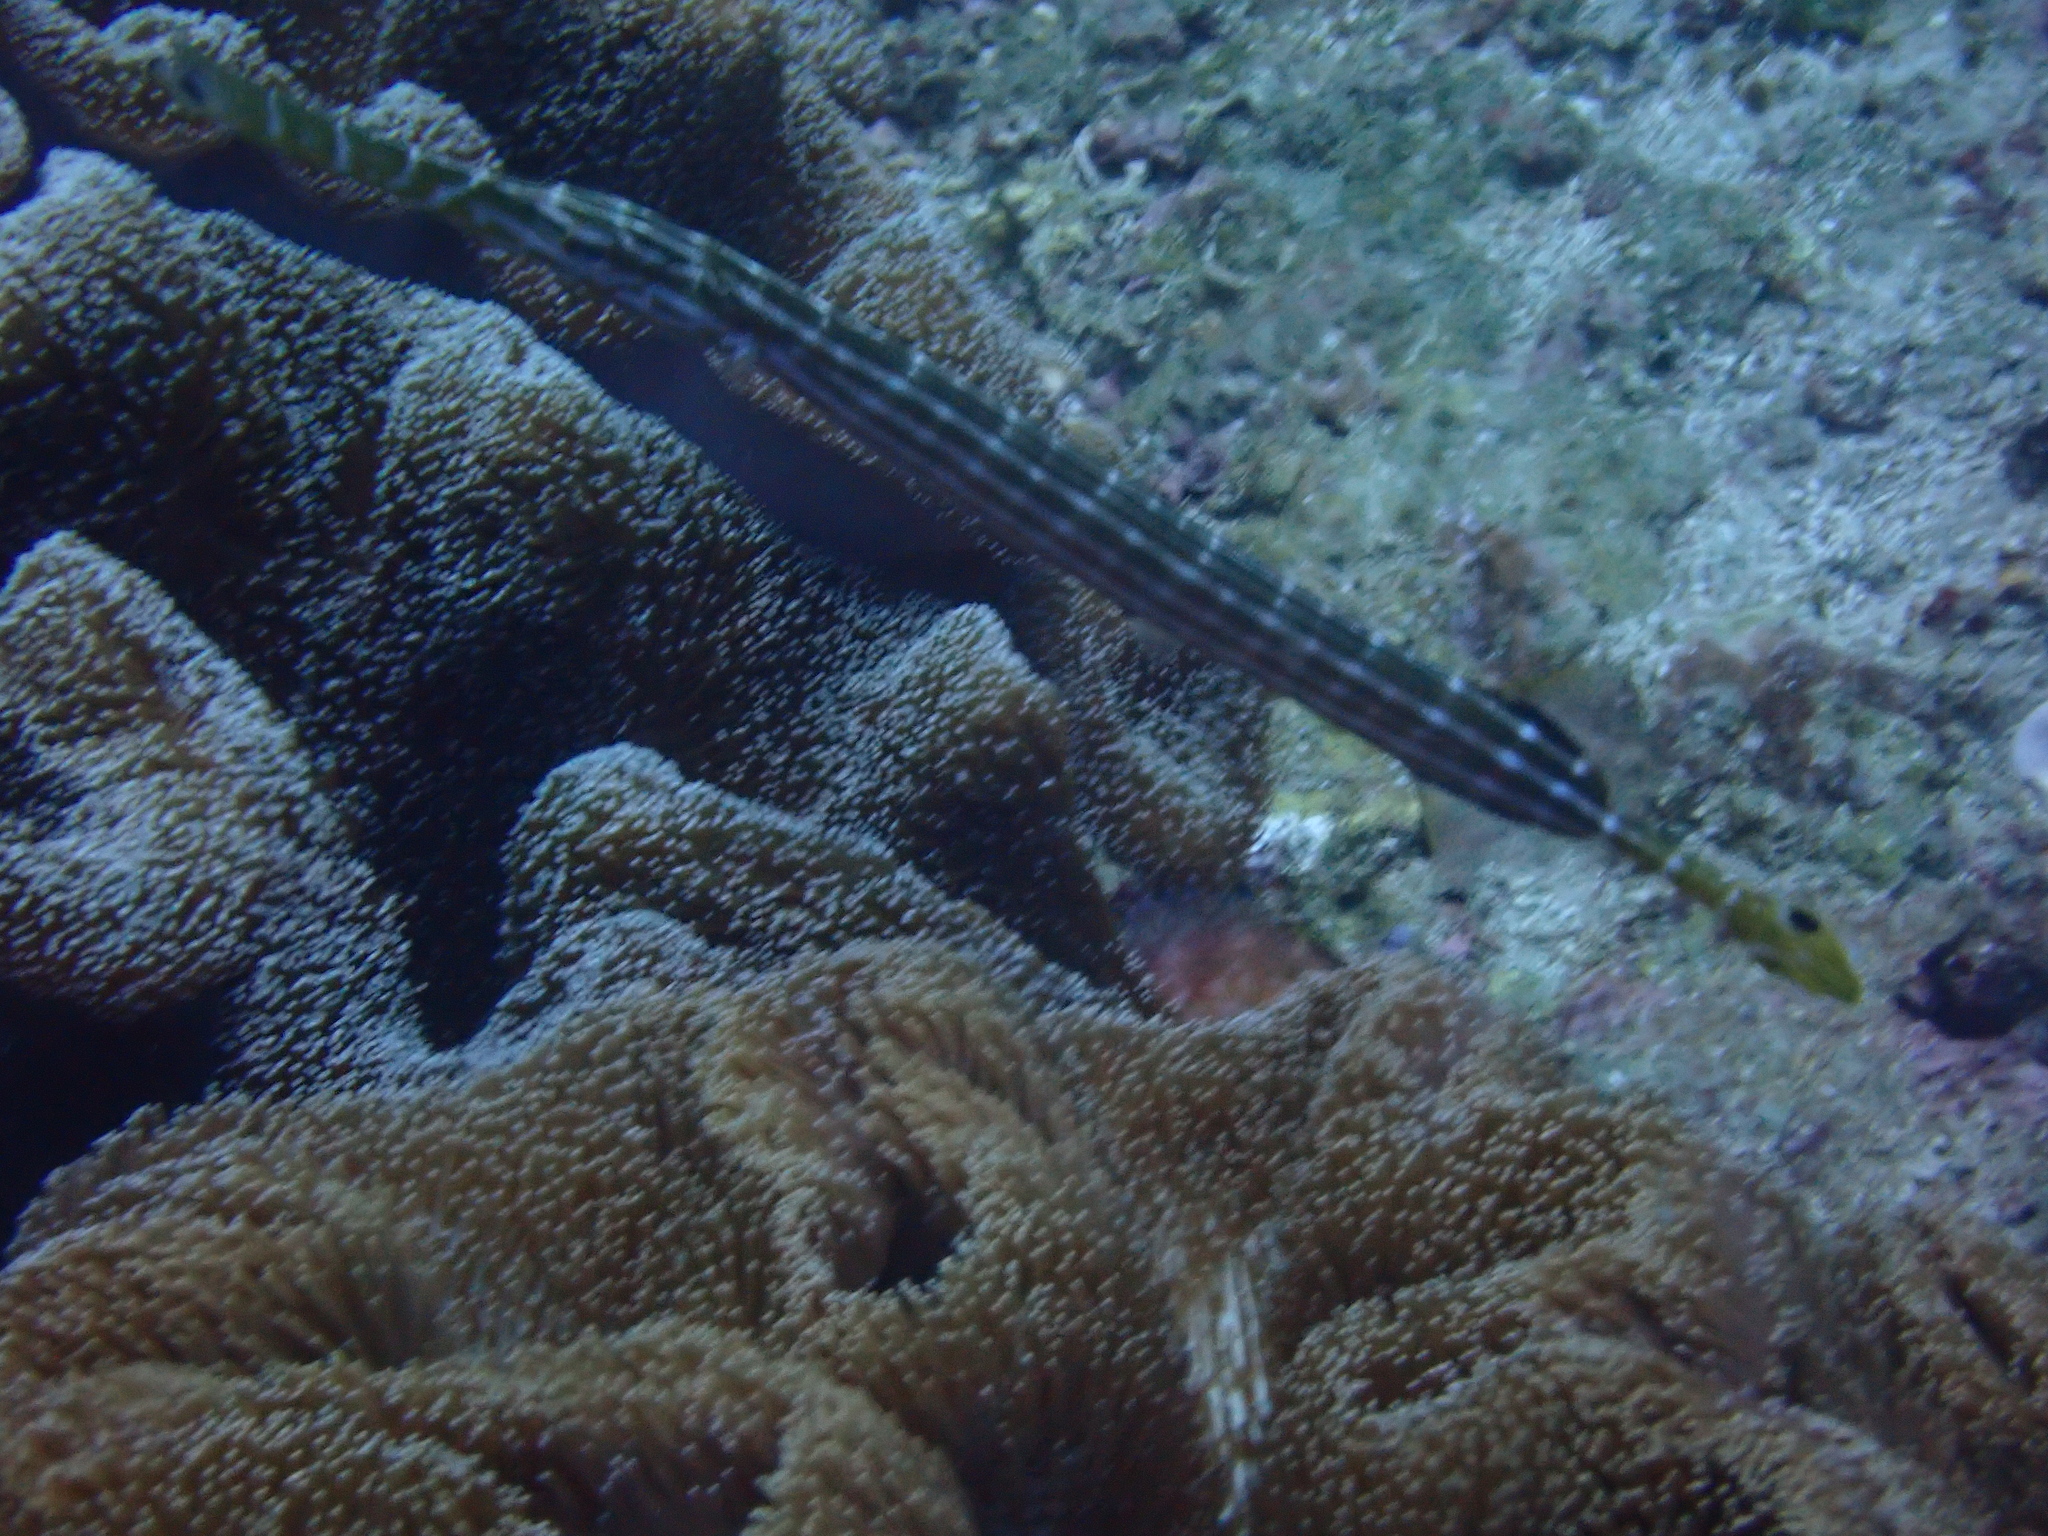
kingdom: Animalia
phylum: Chordata
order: Syngnathiformes
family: Aulostomidae
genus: Aulostomus
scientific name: Aulostomus chinensis
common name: Chinese trumpetfish
